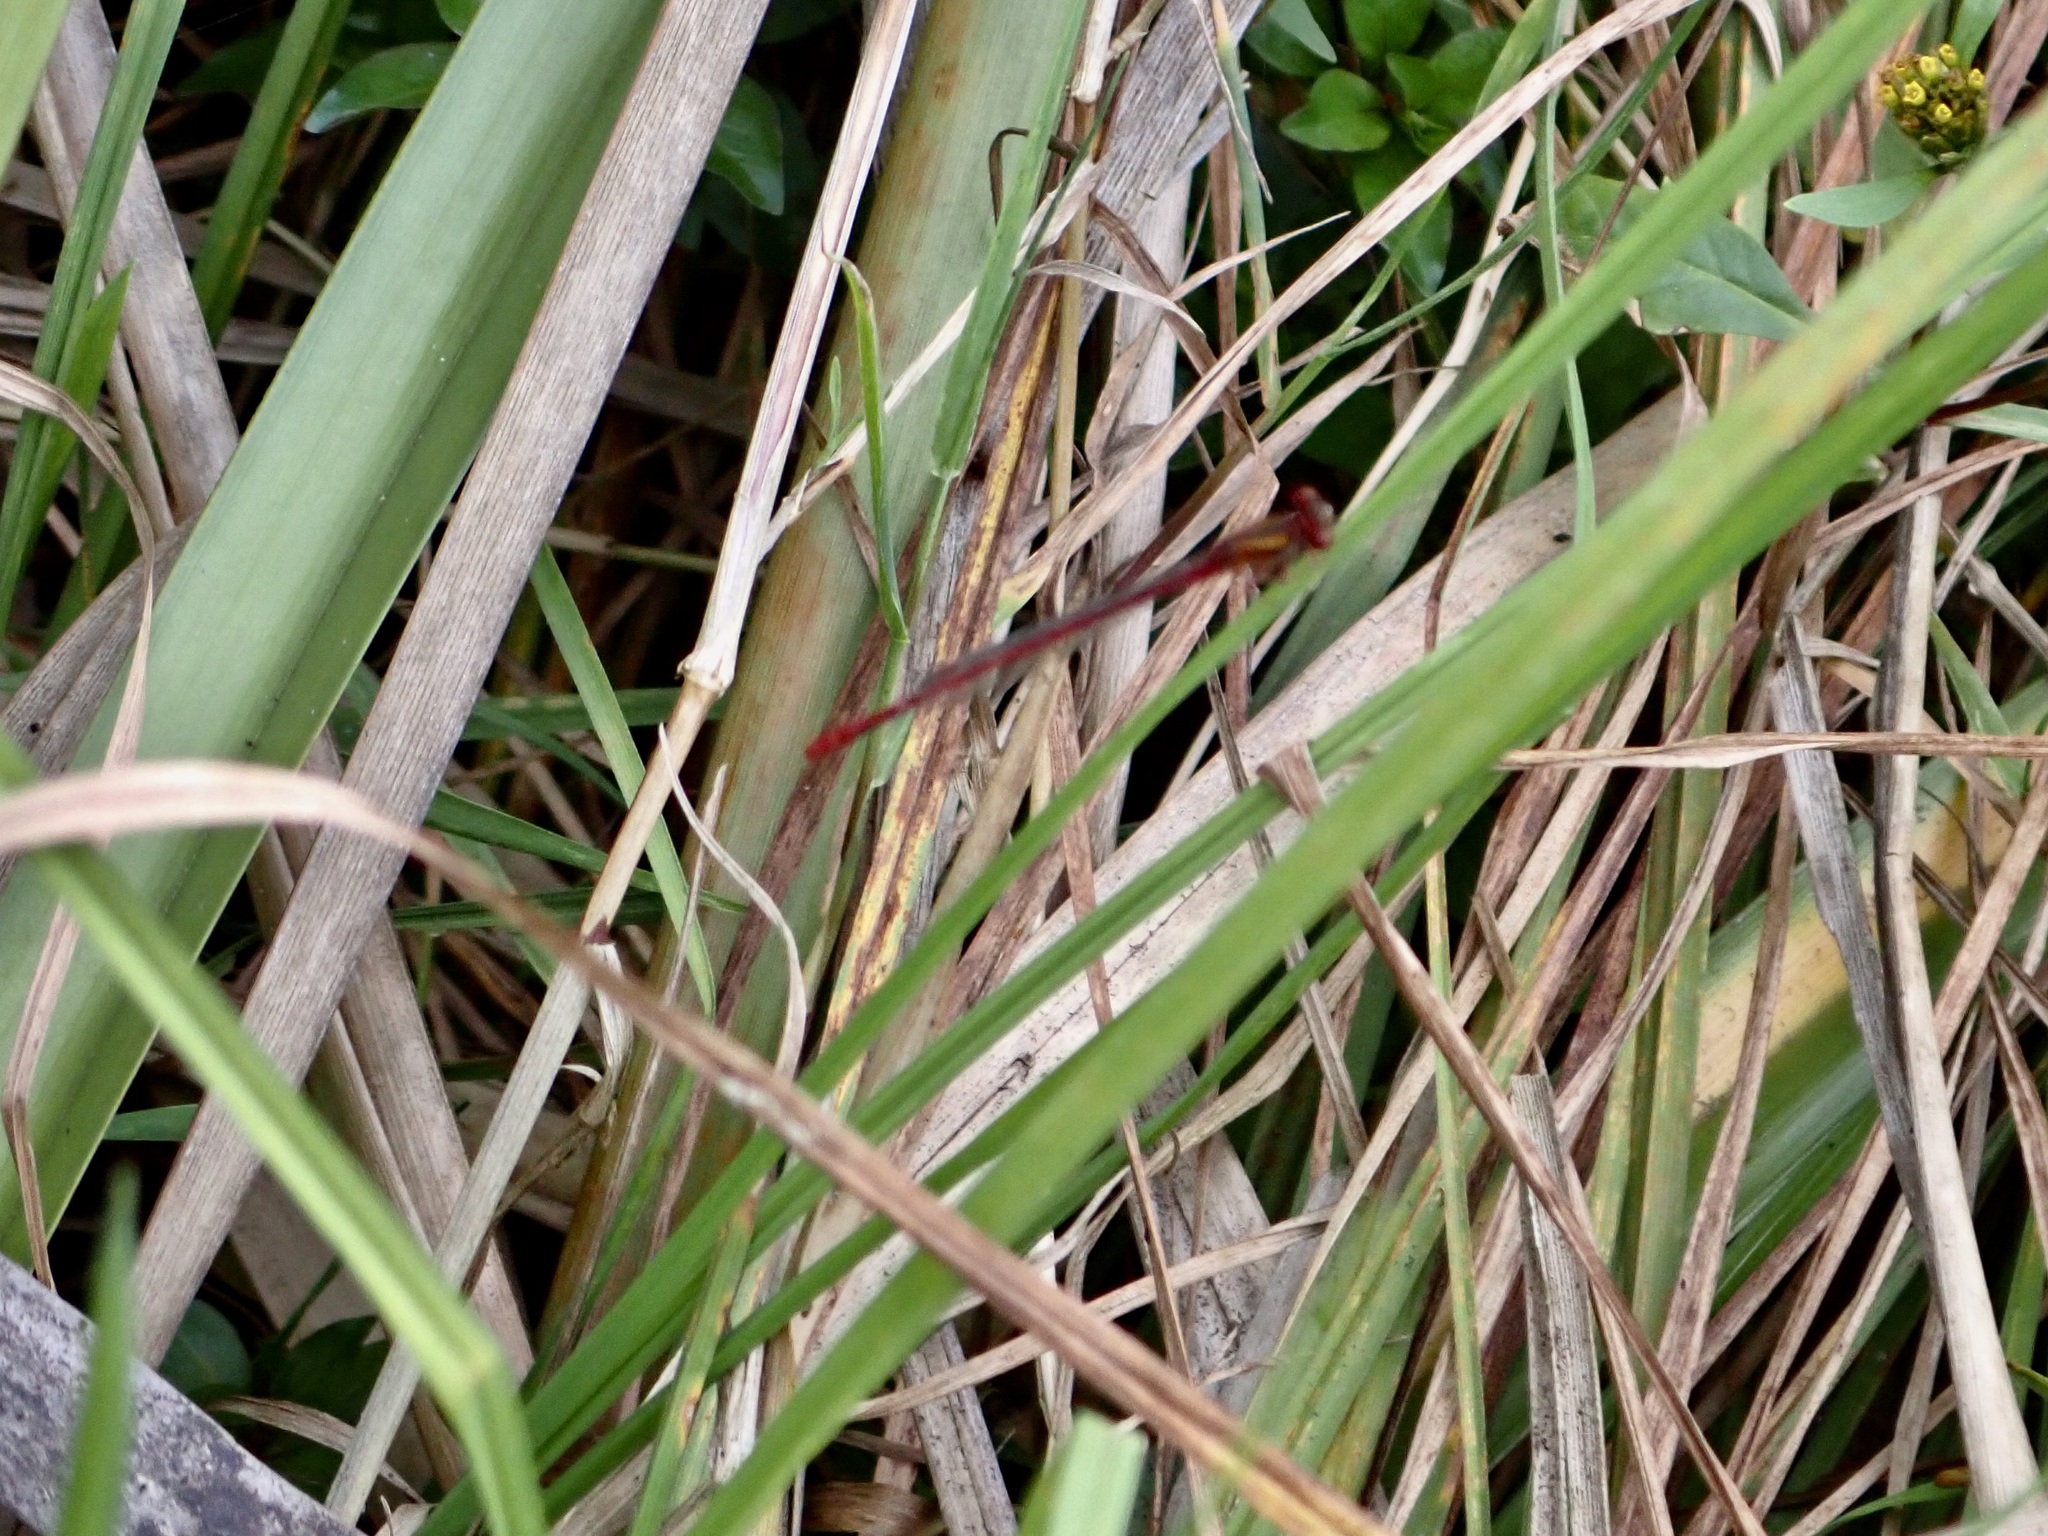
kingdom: Animalia
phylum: Arthropoda
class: Insecta
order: Odonata
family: Coenagrionidae
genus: Xanthocnemis
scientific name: Xanthocnemis zealandica
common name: Common redcoat damselfly
